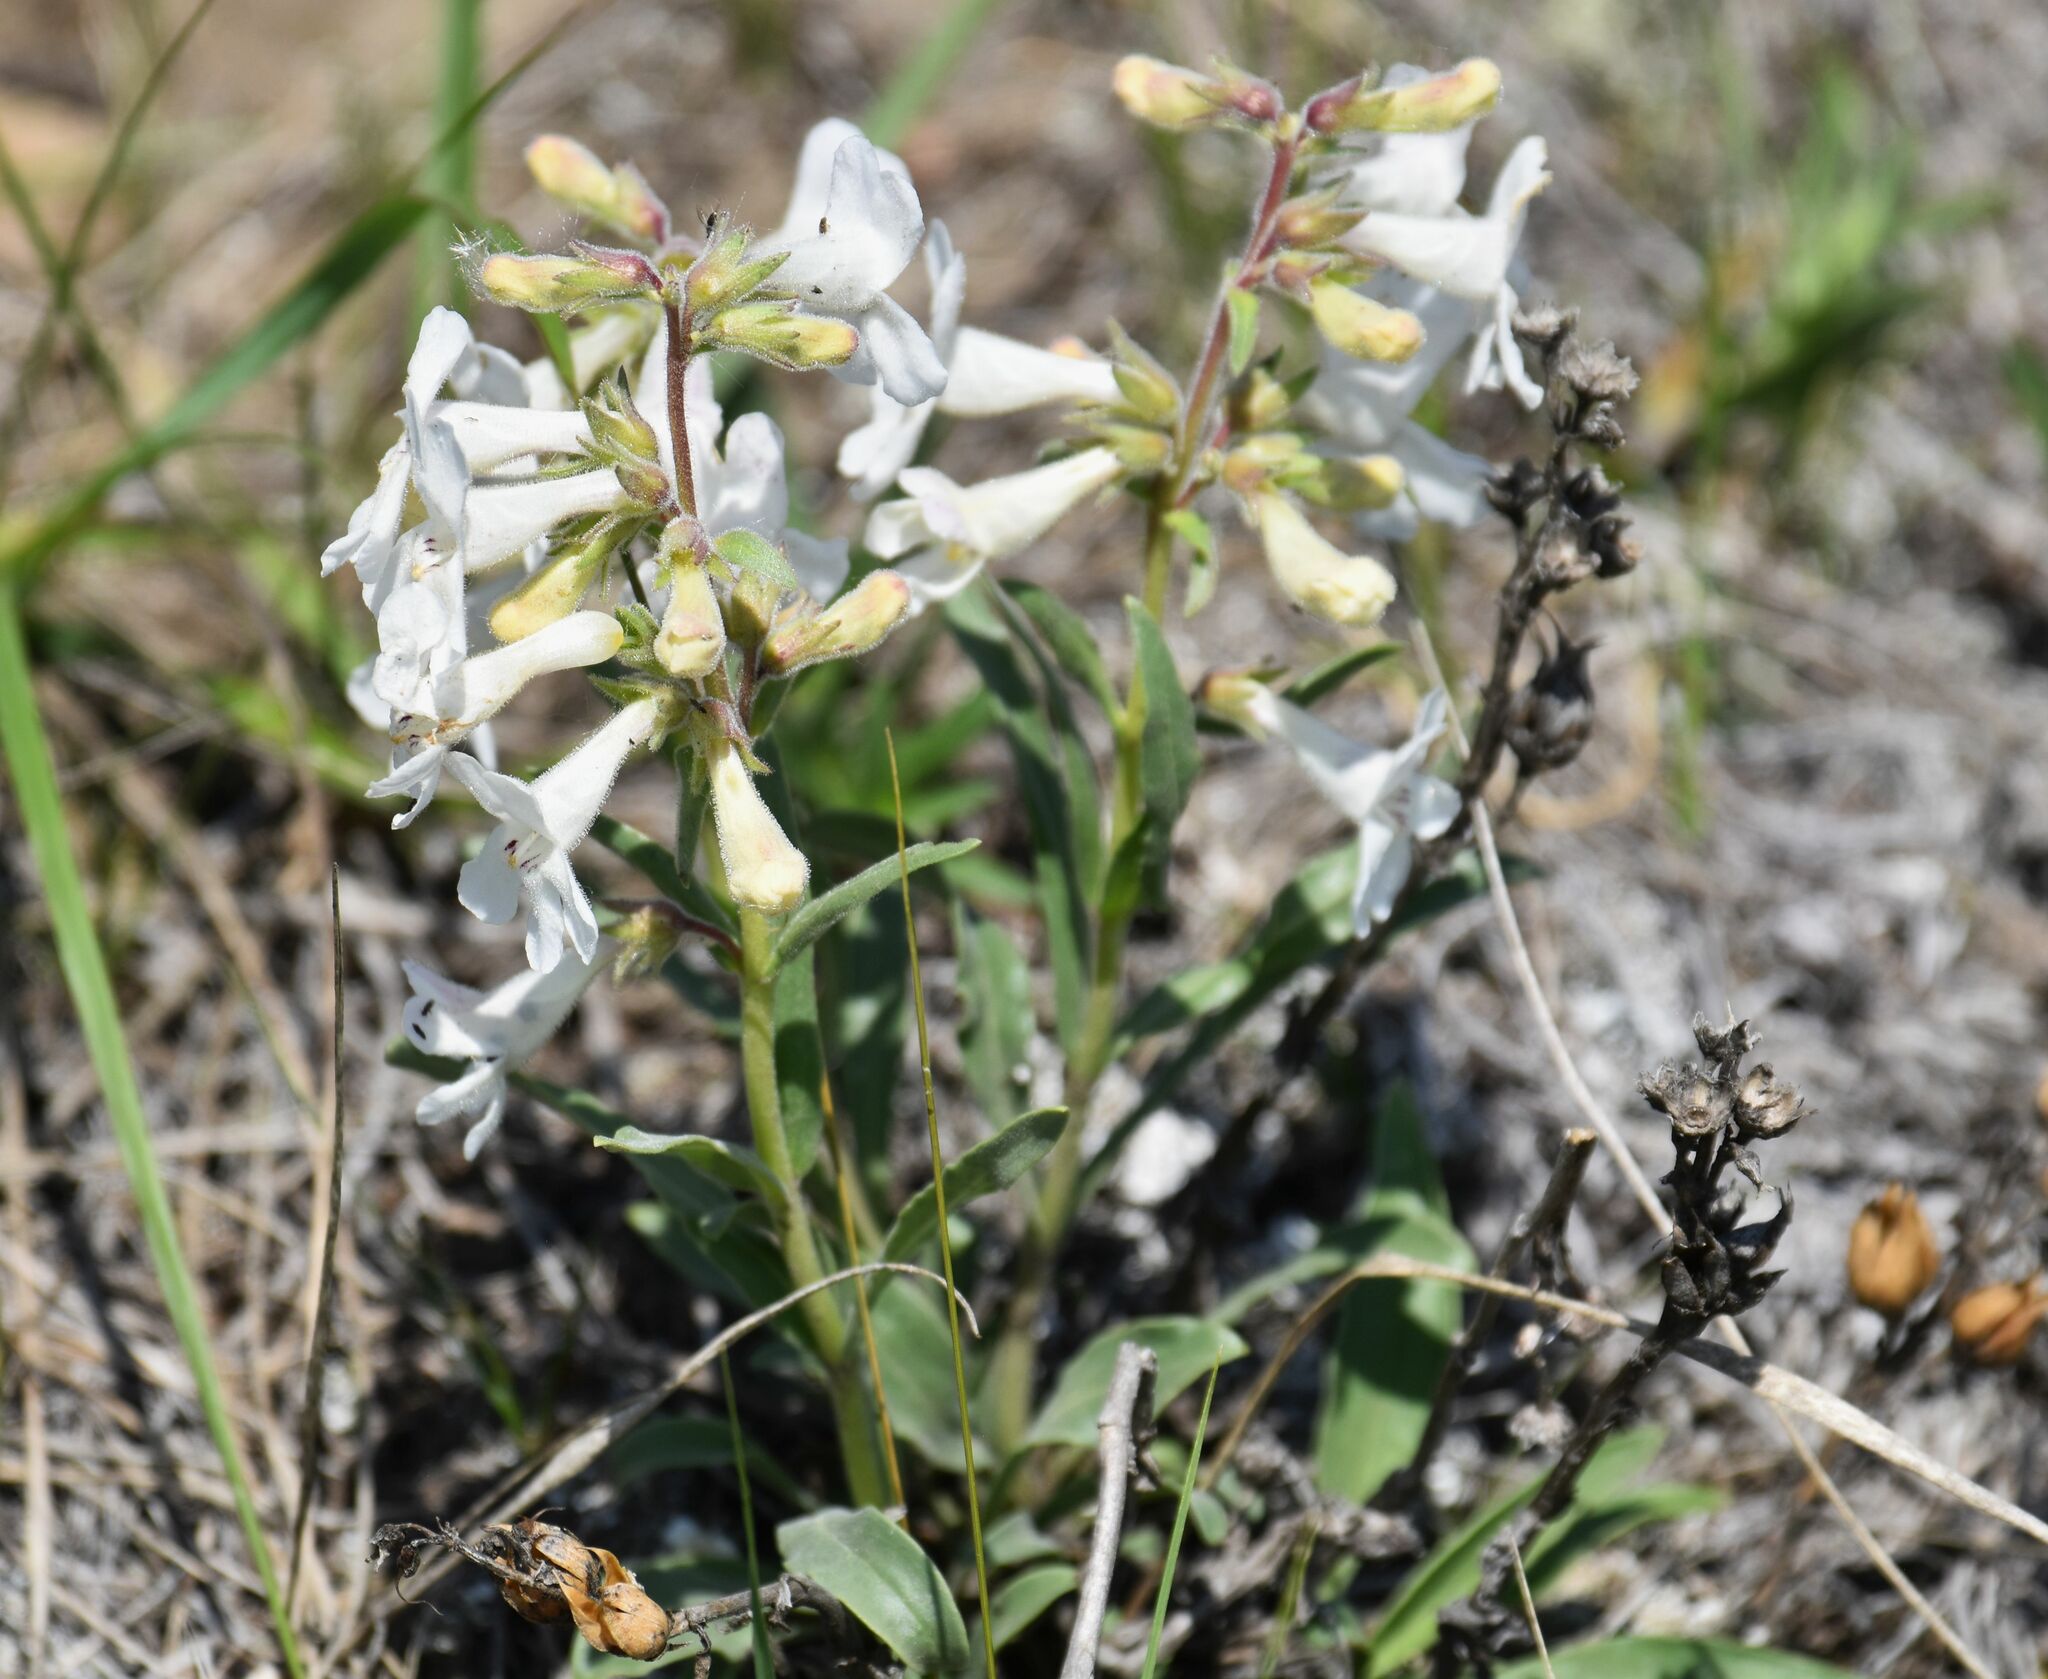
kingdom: Plantae
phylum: Tracheophyta
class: Magnoliopsida
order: Lamiales
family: Plantaginaceae
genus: Penstemon
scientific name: Penstemon albidus
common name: White beardtongue
